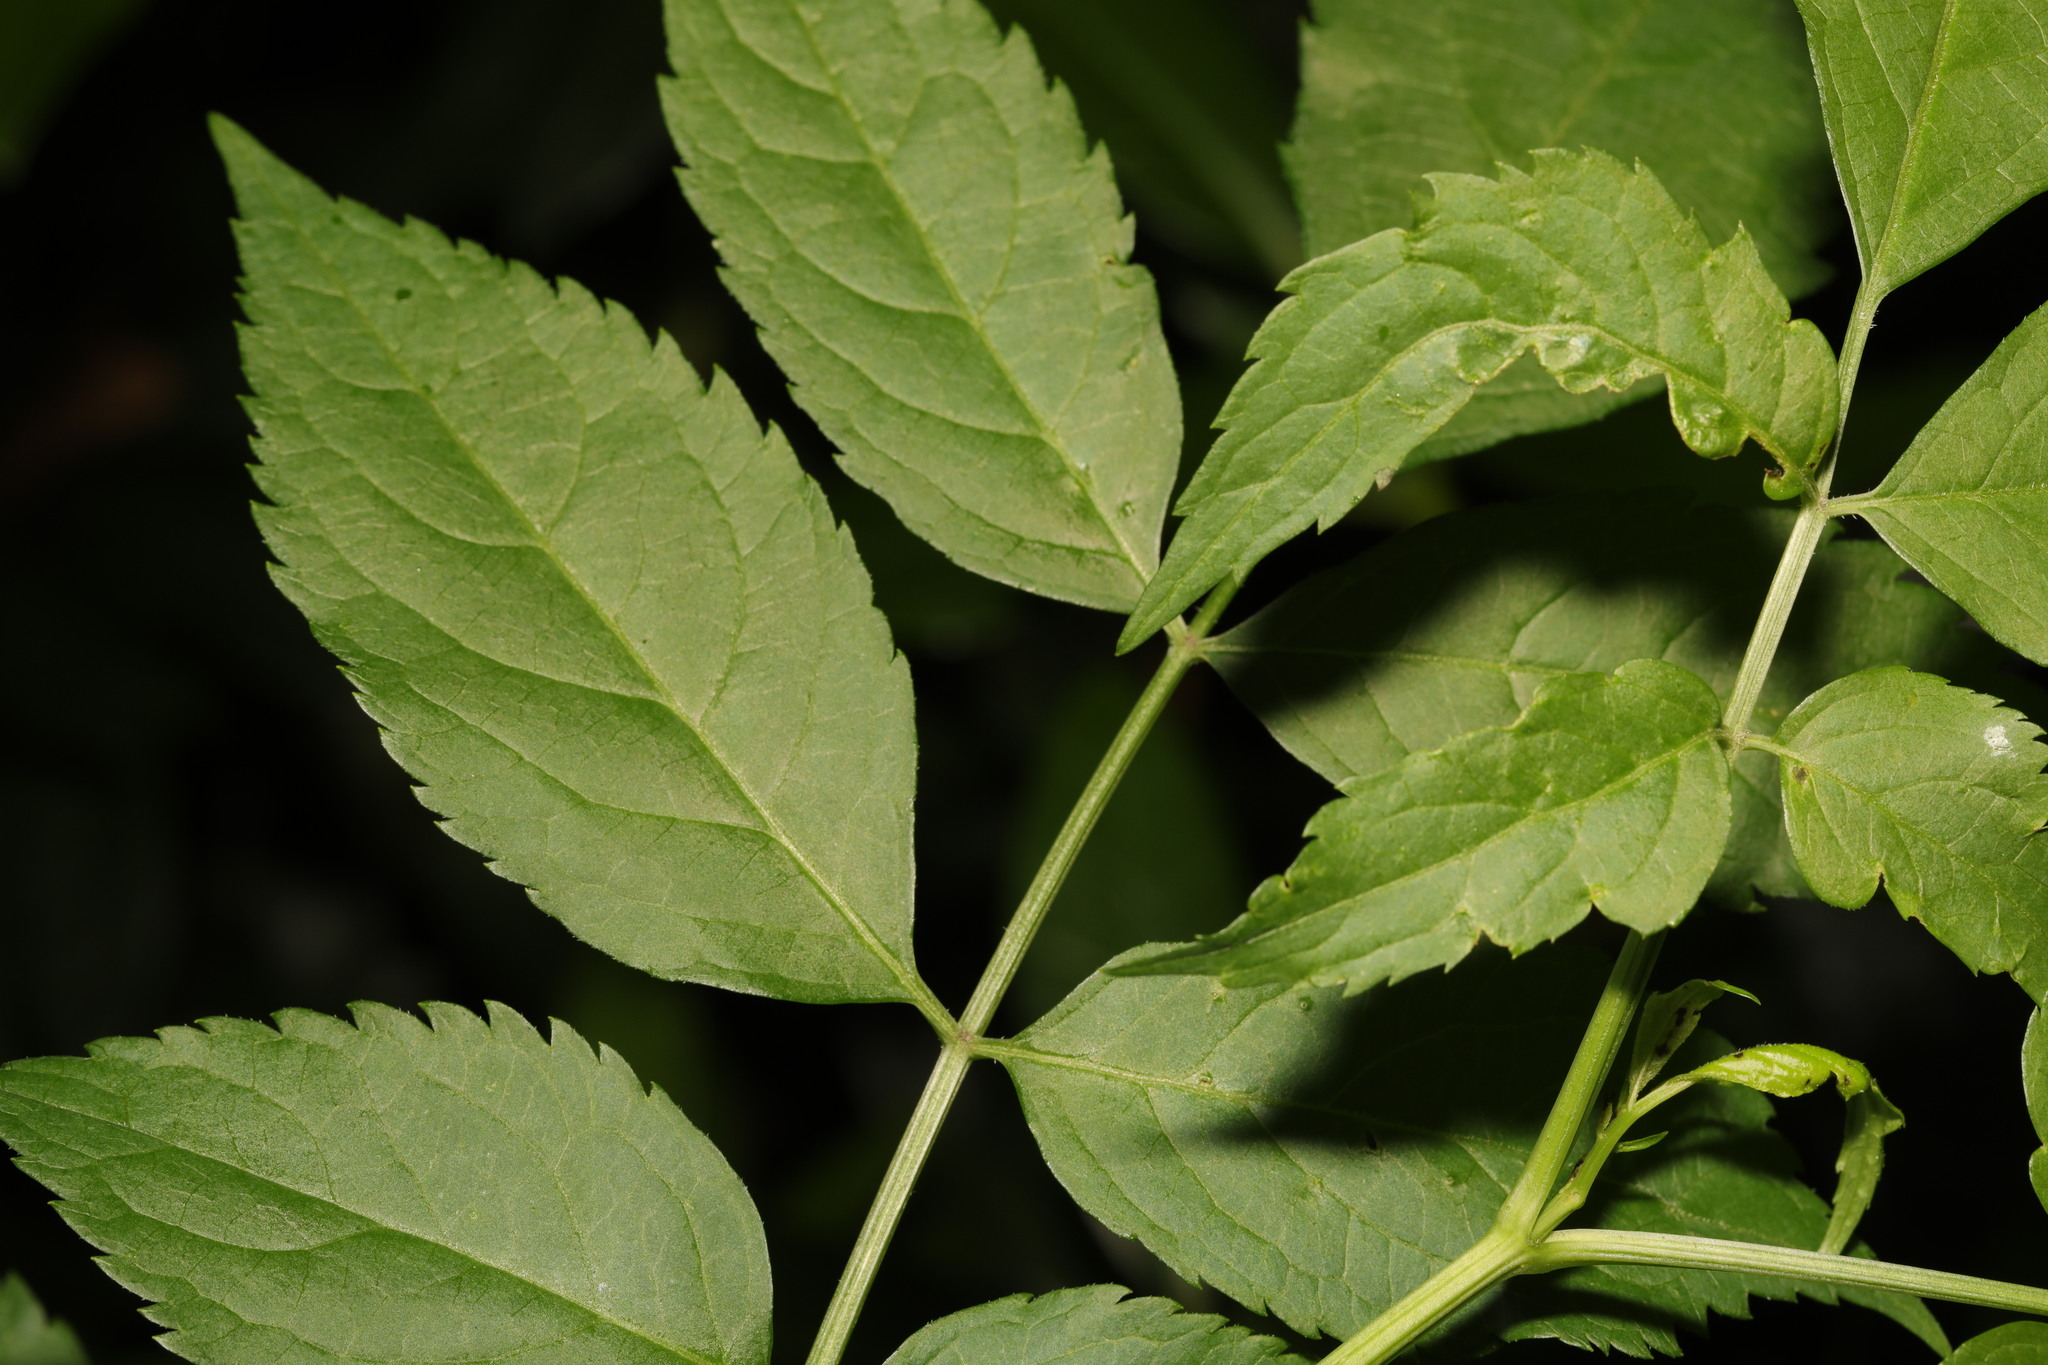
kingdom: Plantae
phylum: Tracheophyta
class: Magnoliopsida
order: Dipsacales
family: Viburnaceae
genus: Sambucus
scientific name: Sambucus nigra
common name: Elder
